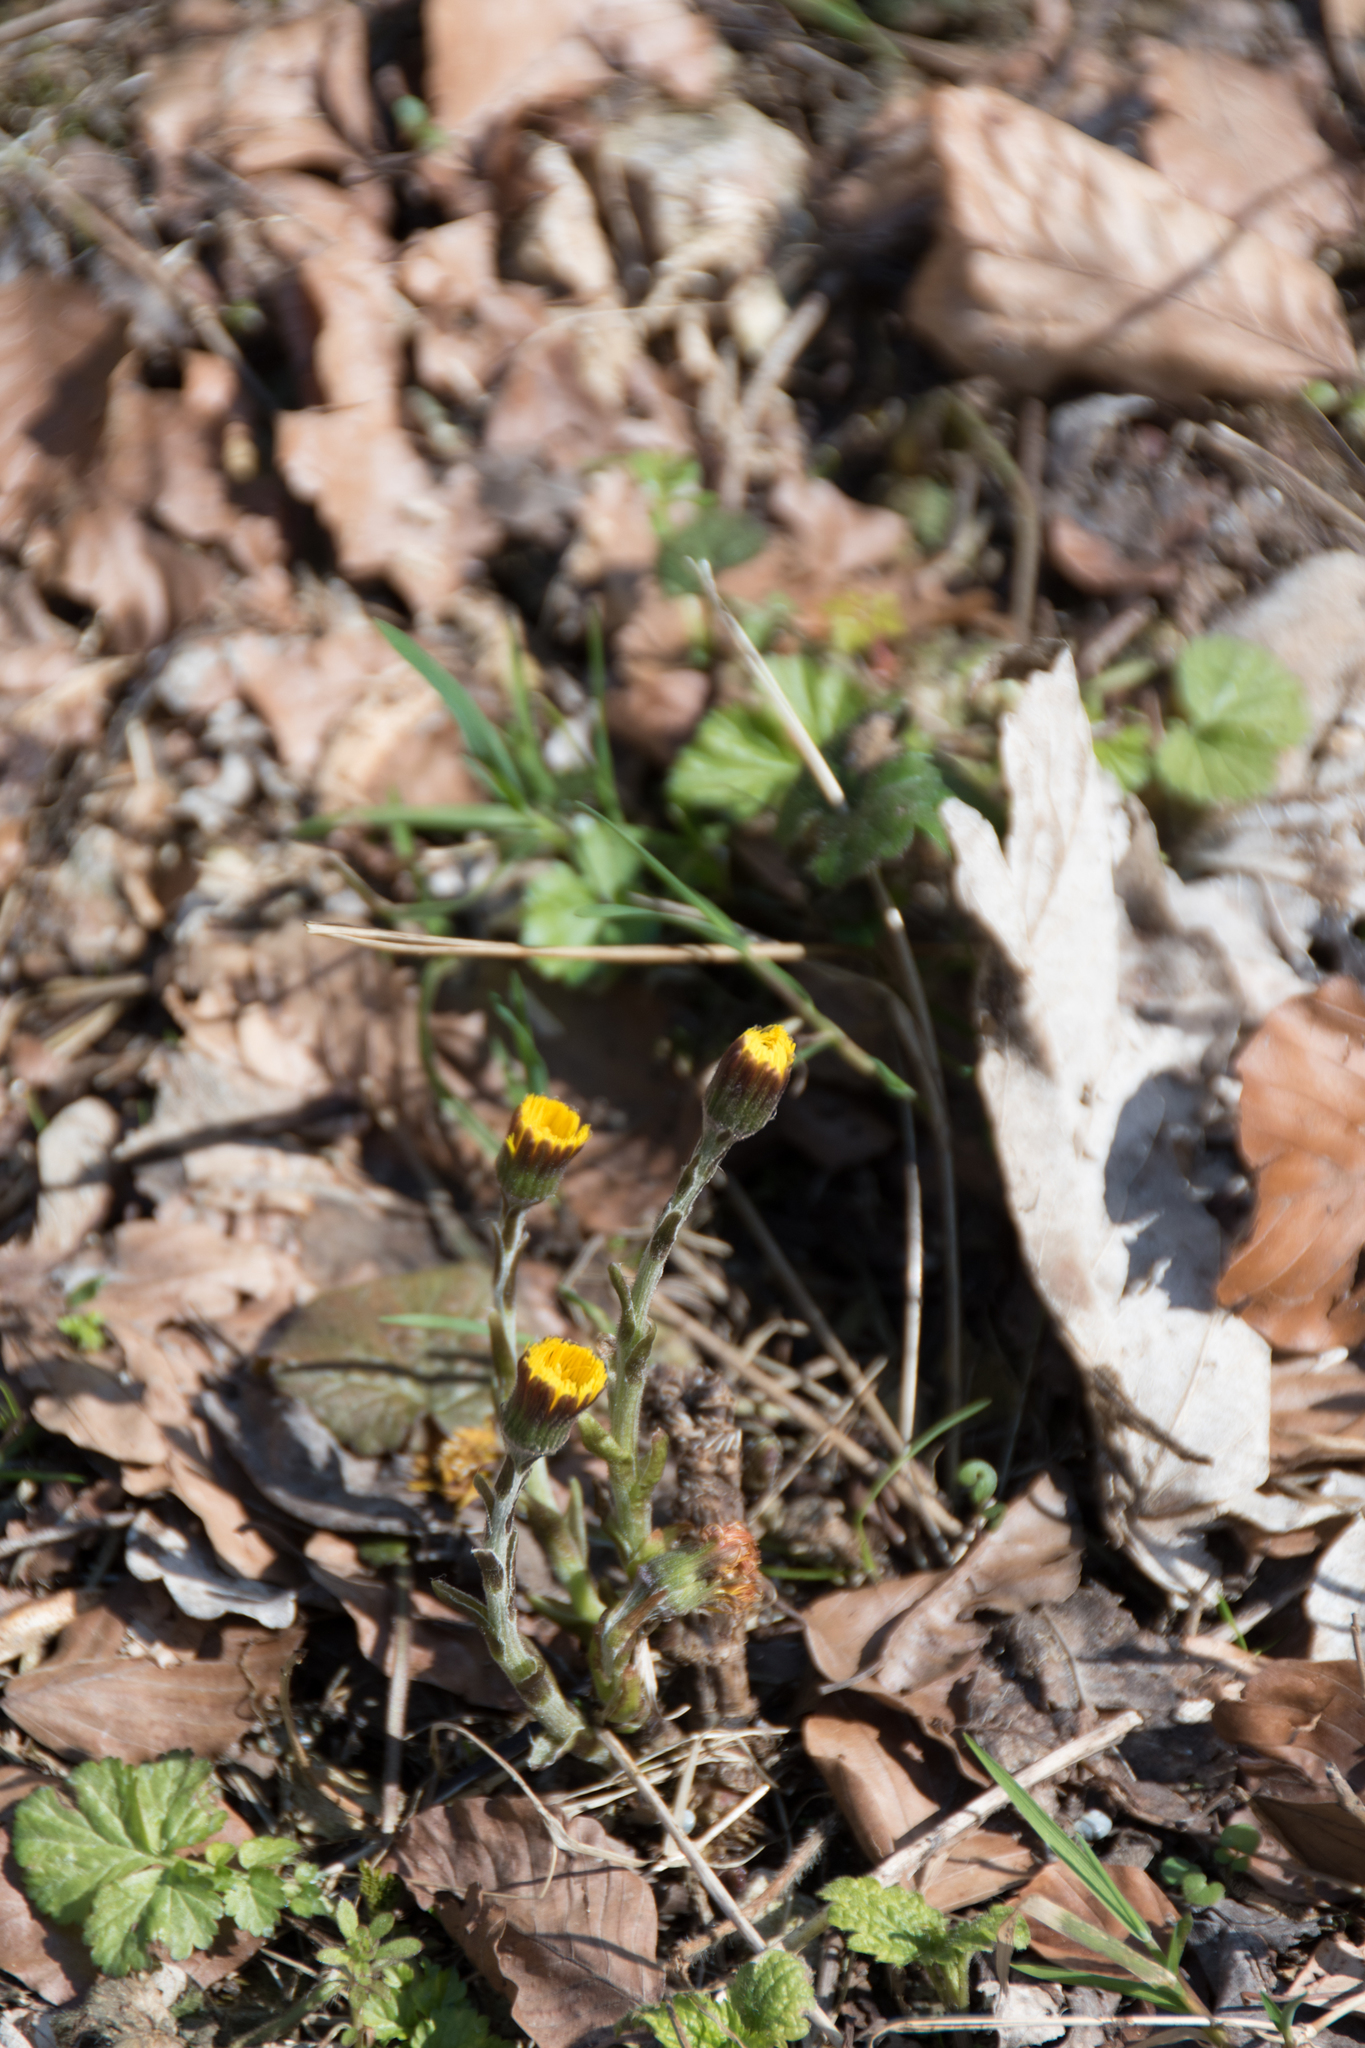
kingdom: Plantae
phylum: Tracheophyta
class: Magnoliopsida
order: Asterales
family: Asteraceae
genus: Tussilago
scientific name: Tussilago farfara
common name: Coltsfoot
